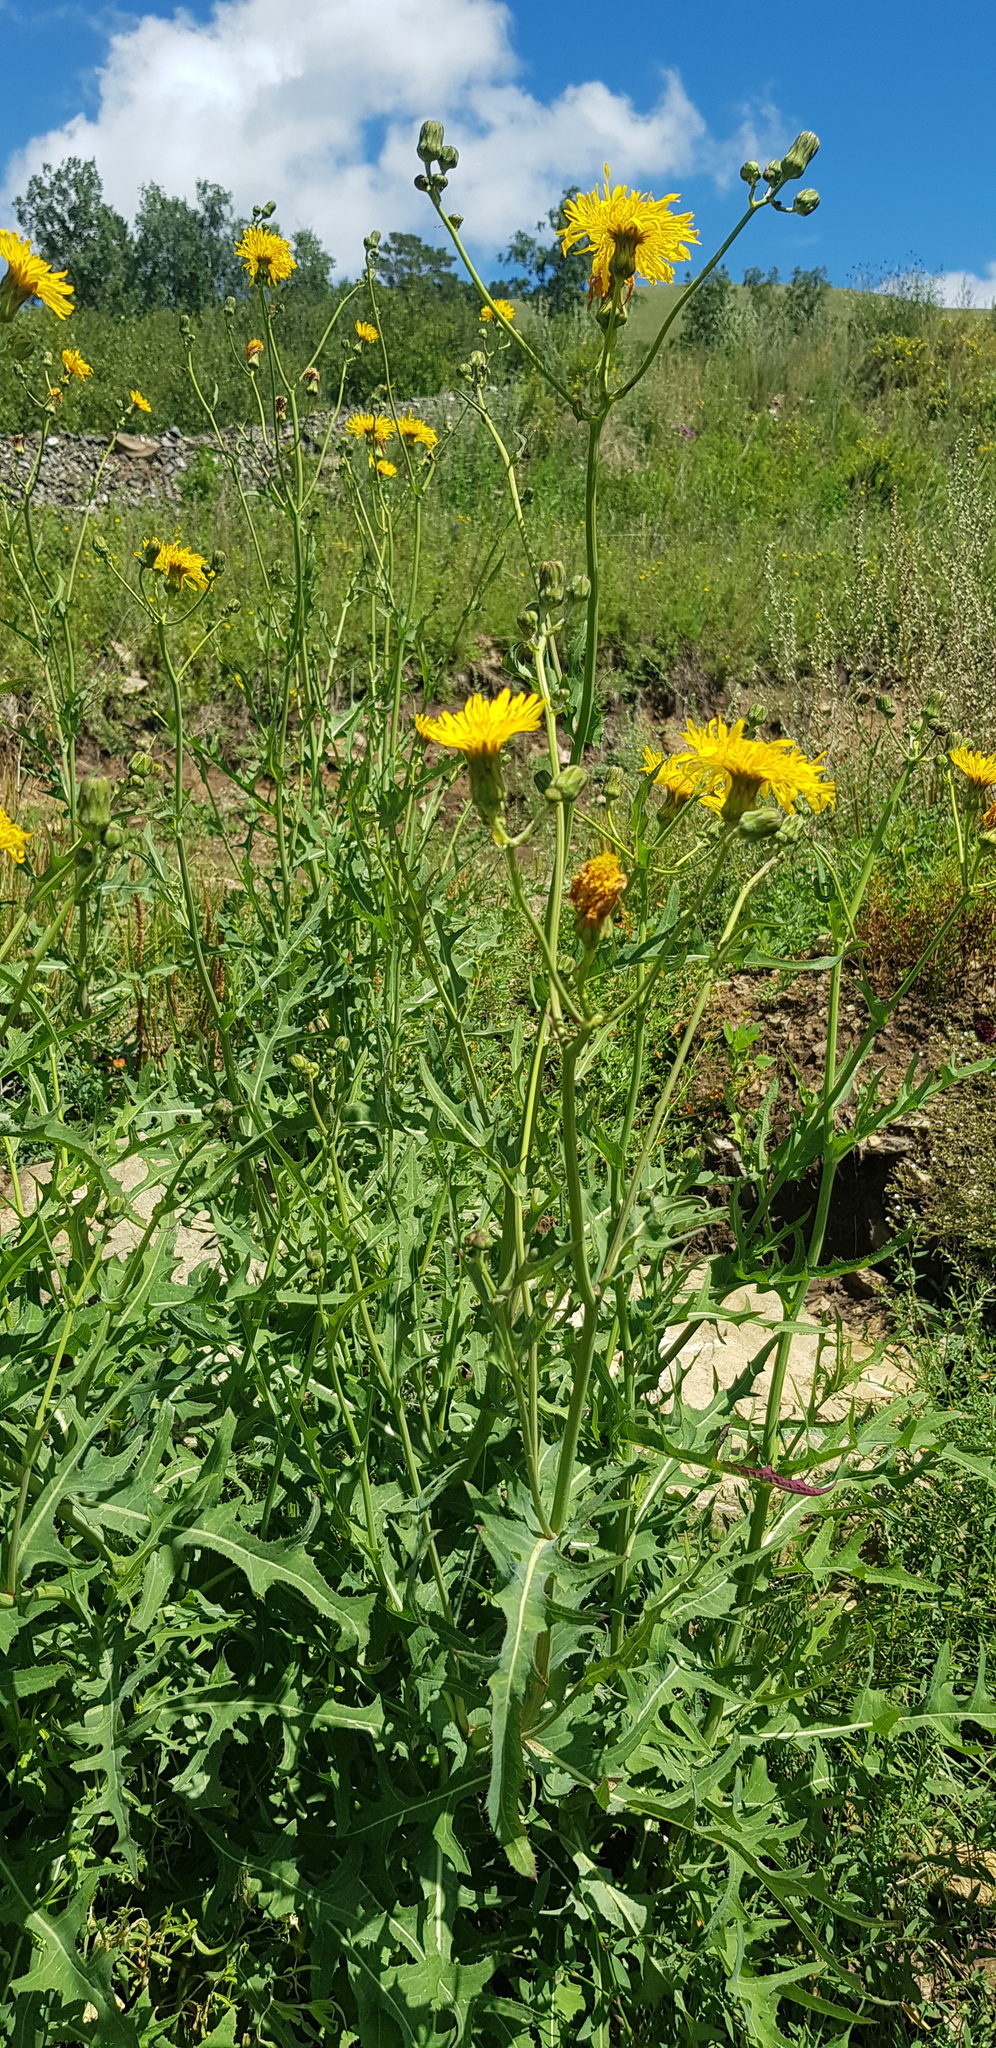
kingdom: Plantae
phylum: Tracheophyta
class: Magnoliopsida
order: Asterales
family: Asteraceae
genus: Sonchus
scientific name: Sonchus oleraceus
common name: Common sowthistle
